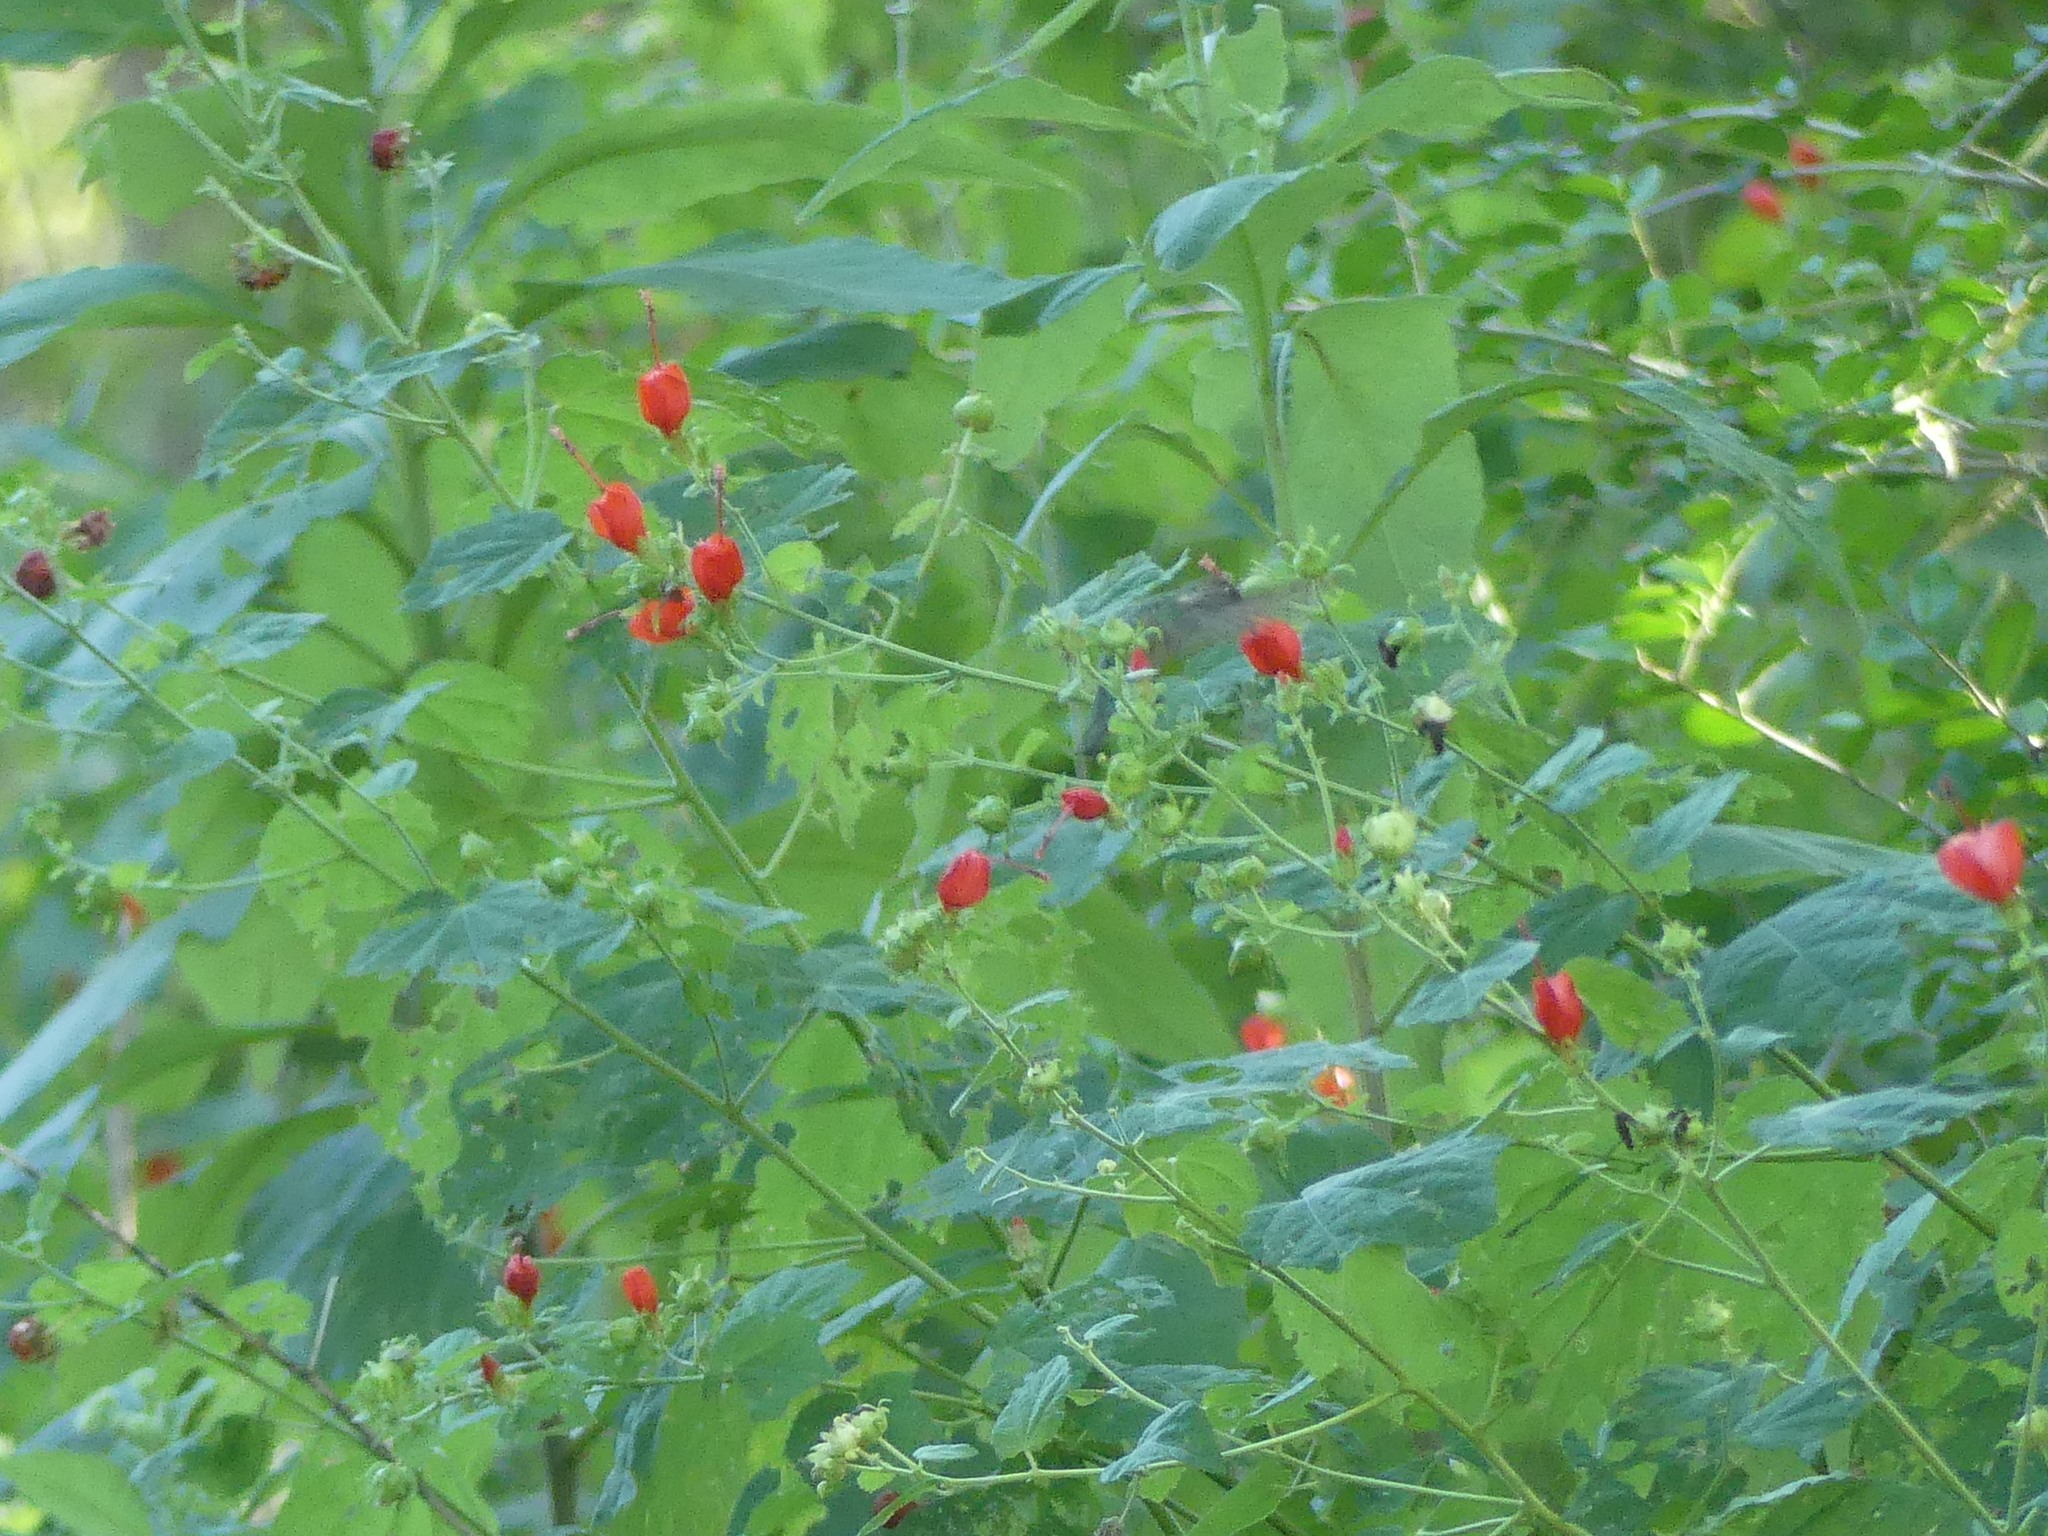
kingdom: Plantae
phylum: Tracheophyta
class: Magnoliopsida
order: Malvales
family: Malvaceae
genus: Malvaviscus
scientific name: Malvaviscus arboreus
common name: Wax mallow
